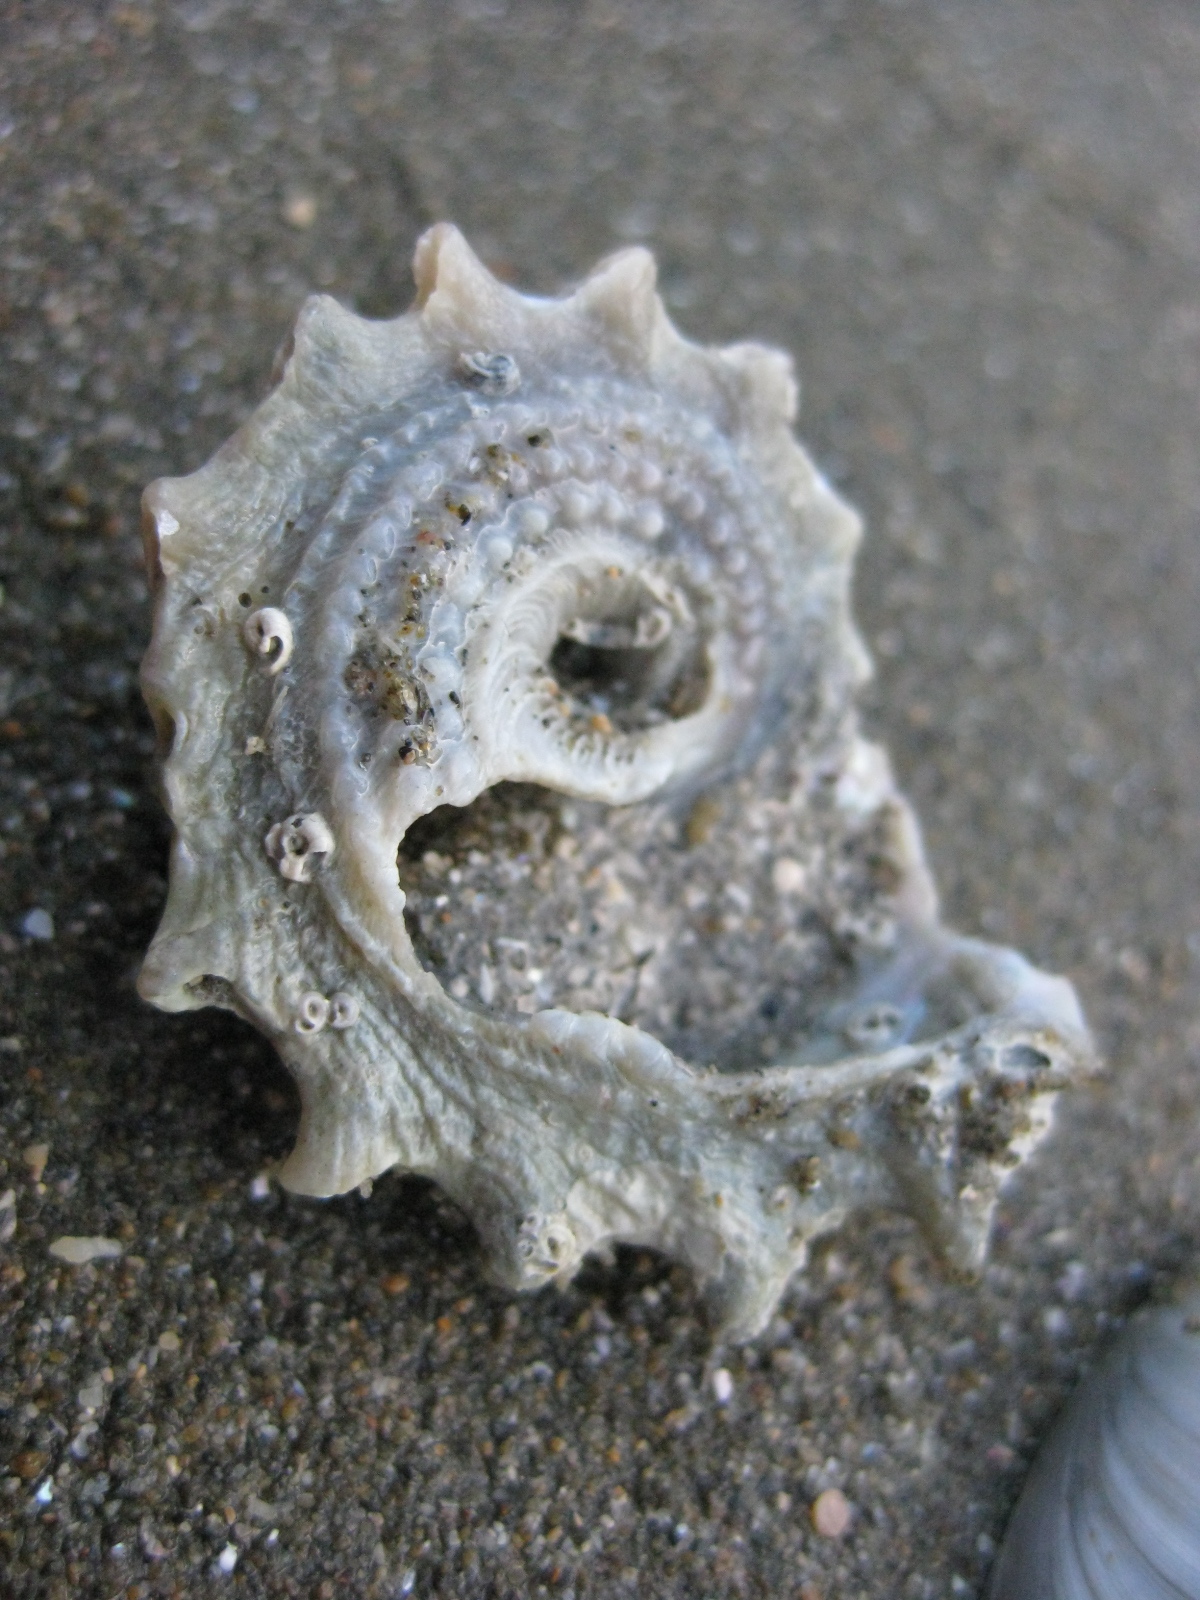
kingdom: Animalia
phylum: Mollusca
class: Gastropoda
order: Trochida
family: Turbinidae
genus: Astraea
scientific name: Astraea heliotropium
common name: Sun shell
